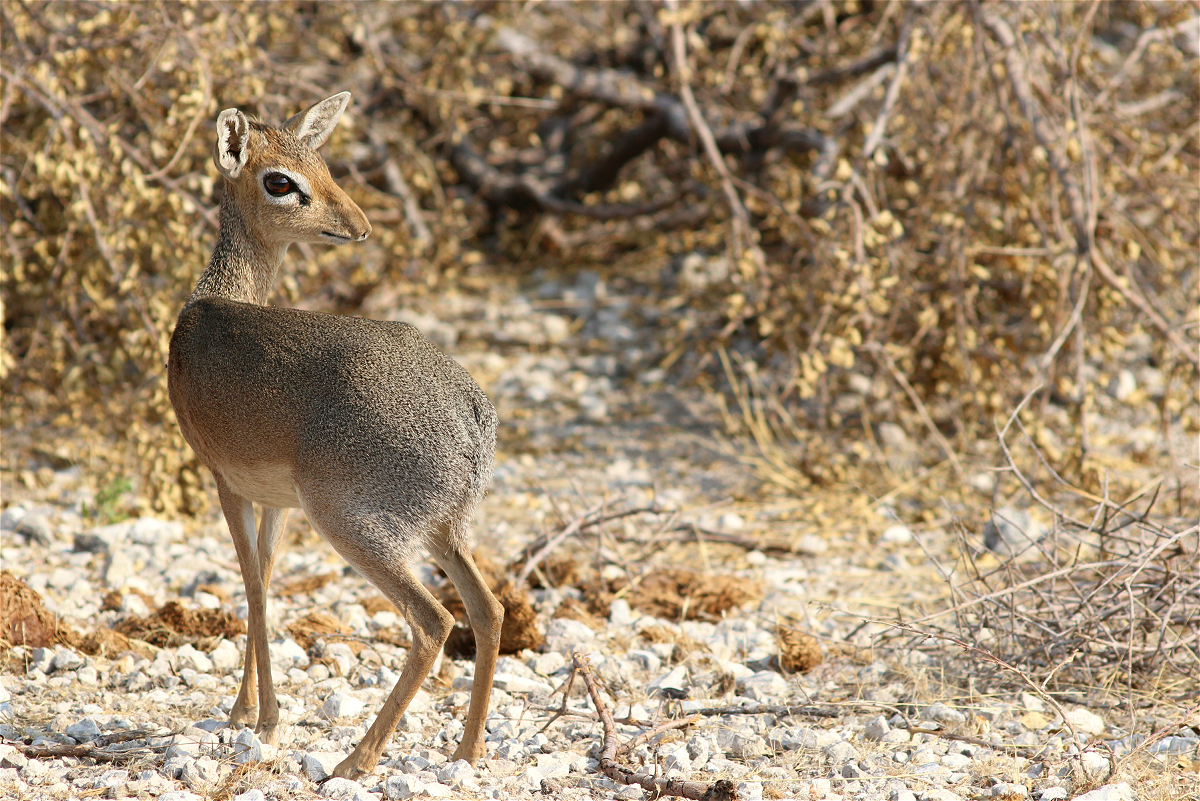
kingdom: Animalia
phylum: Chordata
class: Mammalia
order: Artiodactyla
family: Bovidae
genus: Madoqua
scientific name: Madoqua kirkii
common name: Kirk's dik-dik
